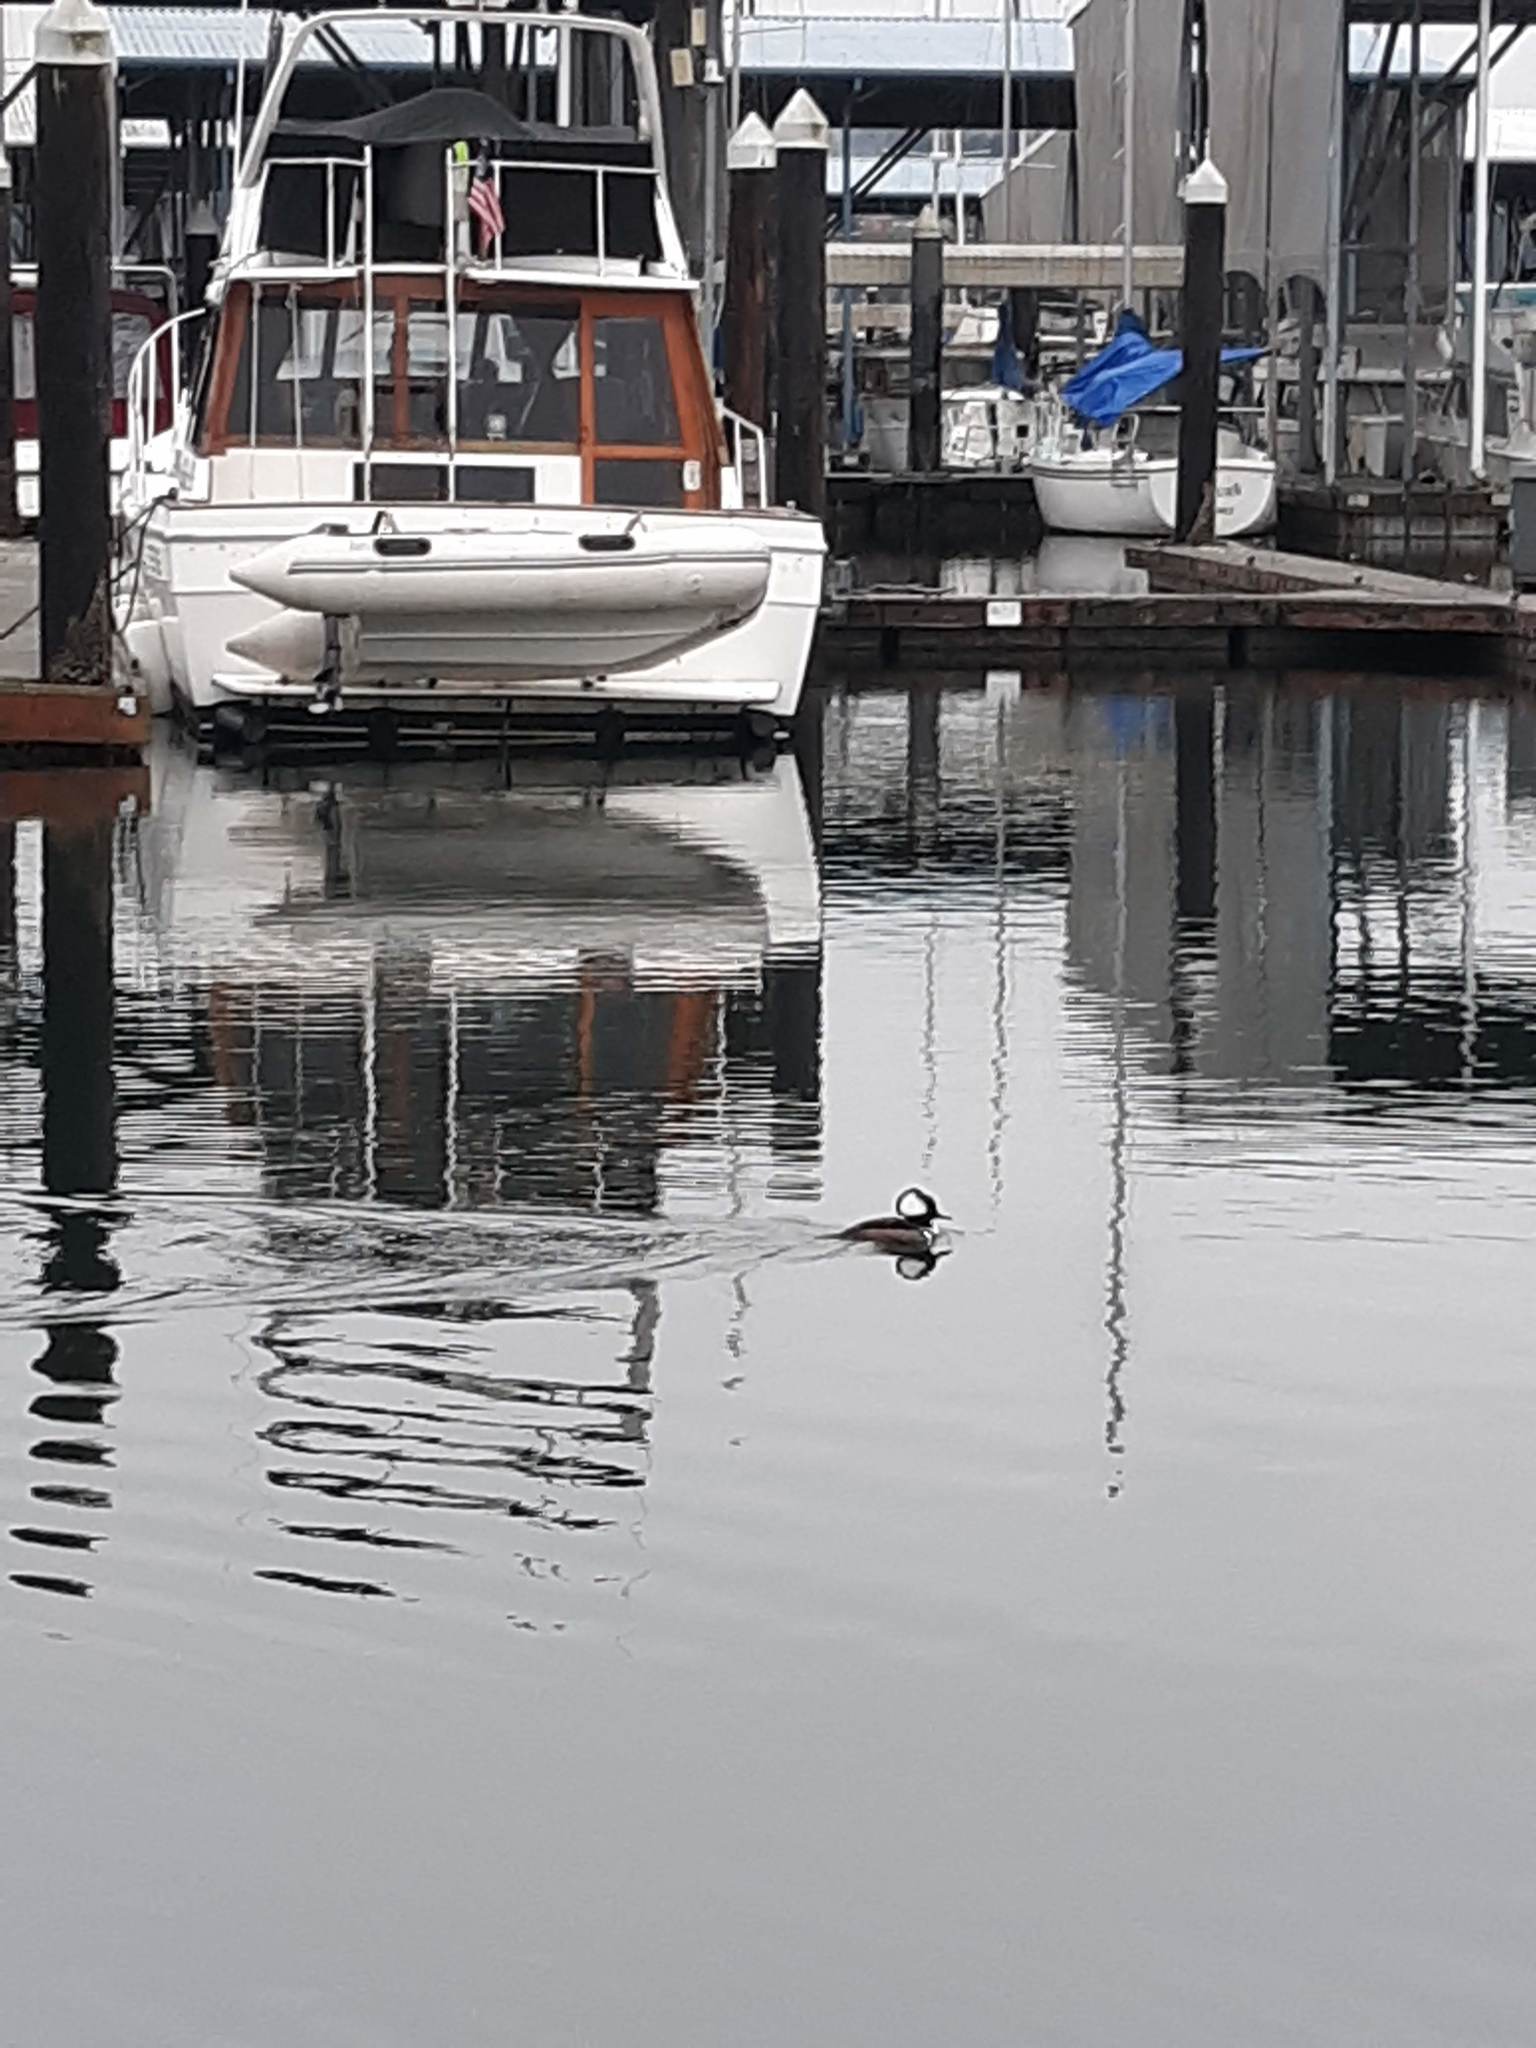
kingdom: Animalia
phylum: Chordata
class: Aves
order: Anseriformes
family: Anatidae
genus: Lophodytes
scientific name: Lophodytes cucullatus
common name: Hooded merganser
